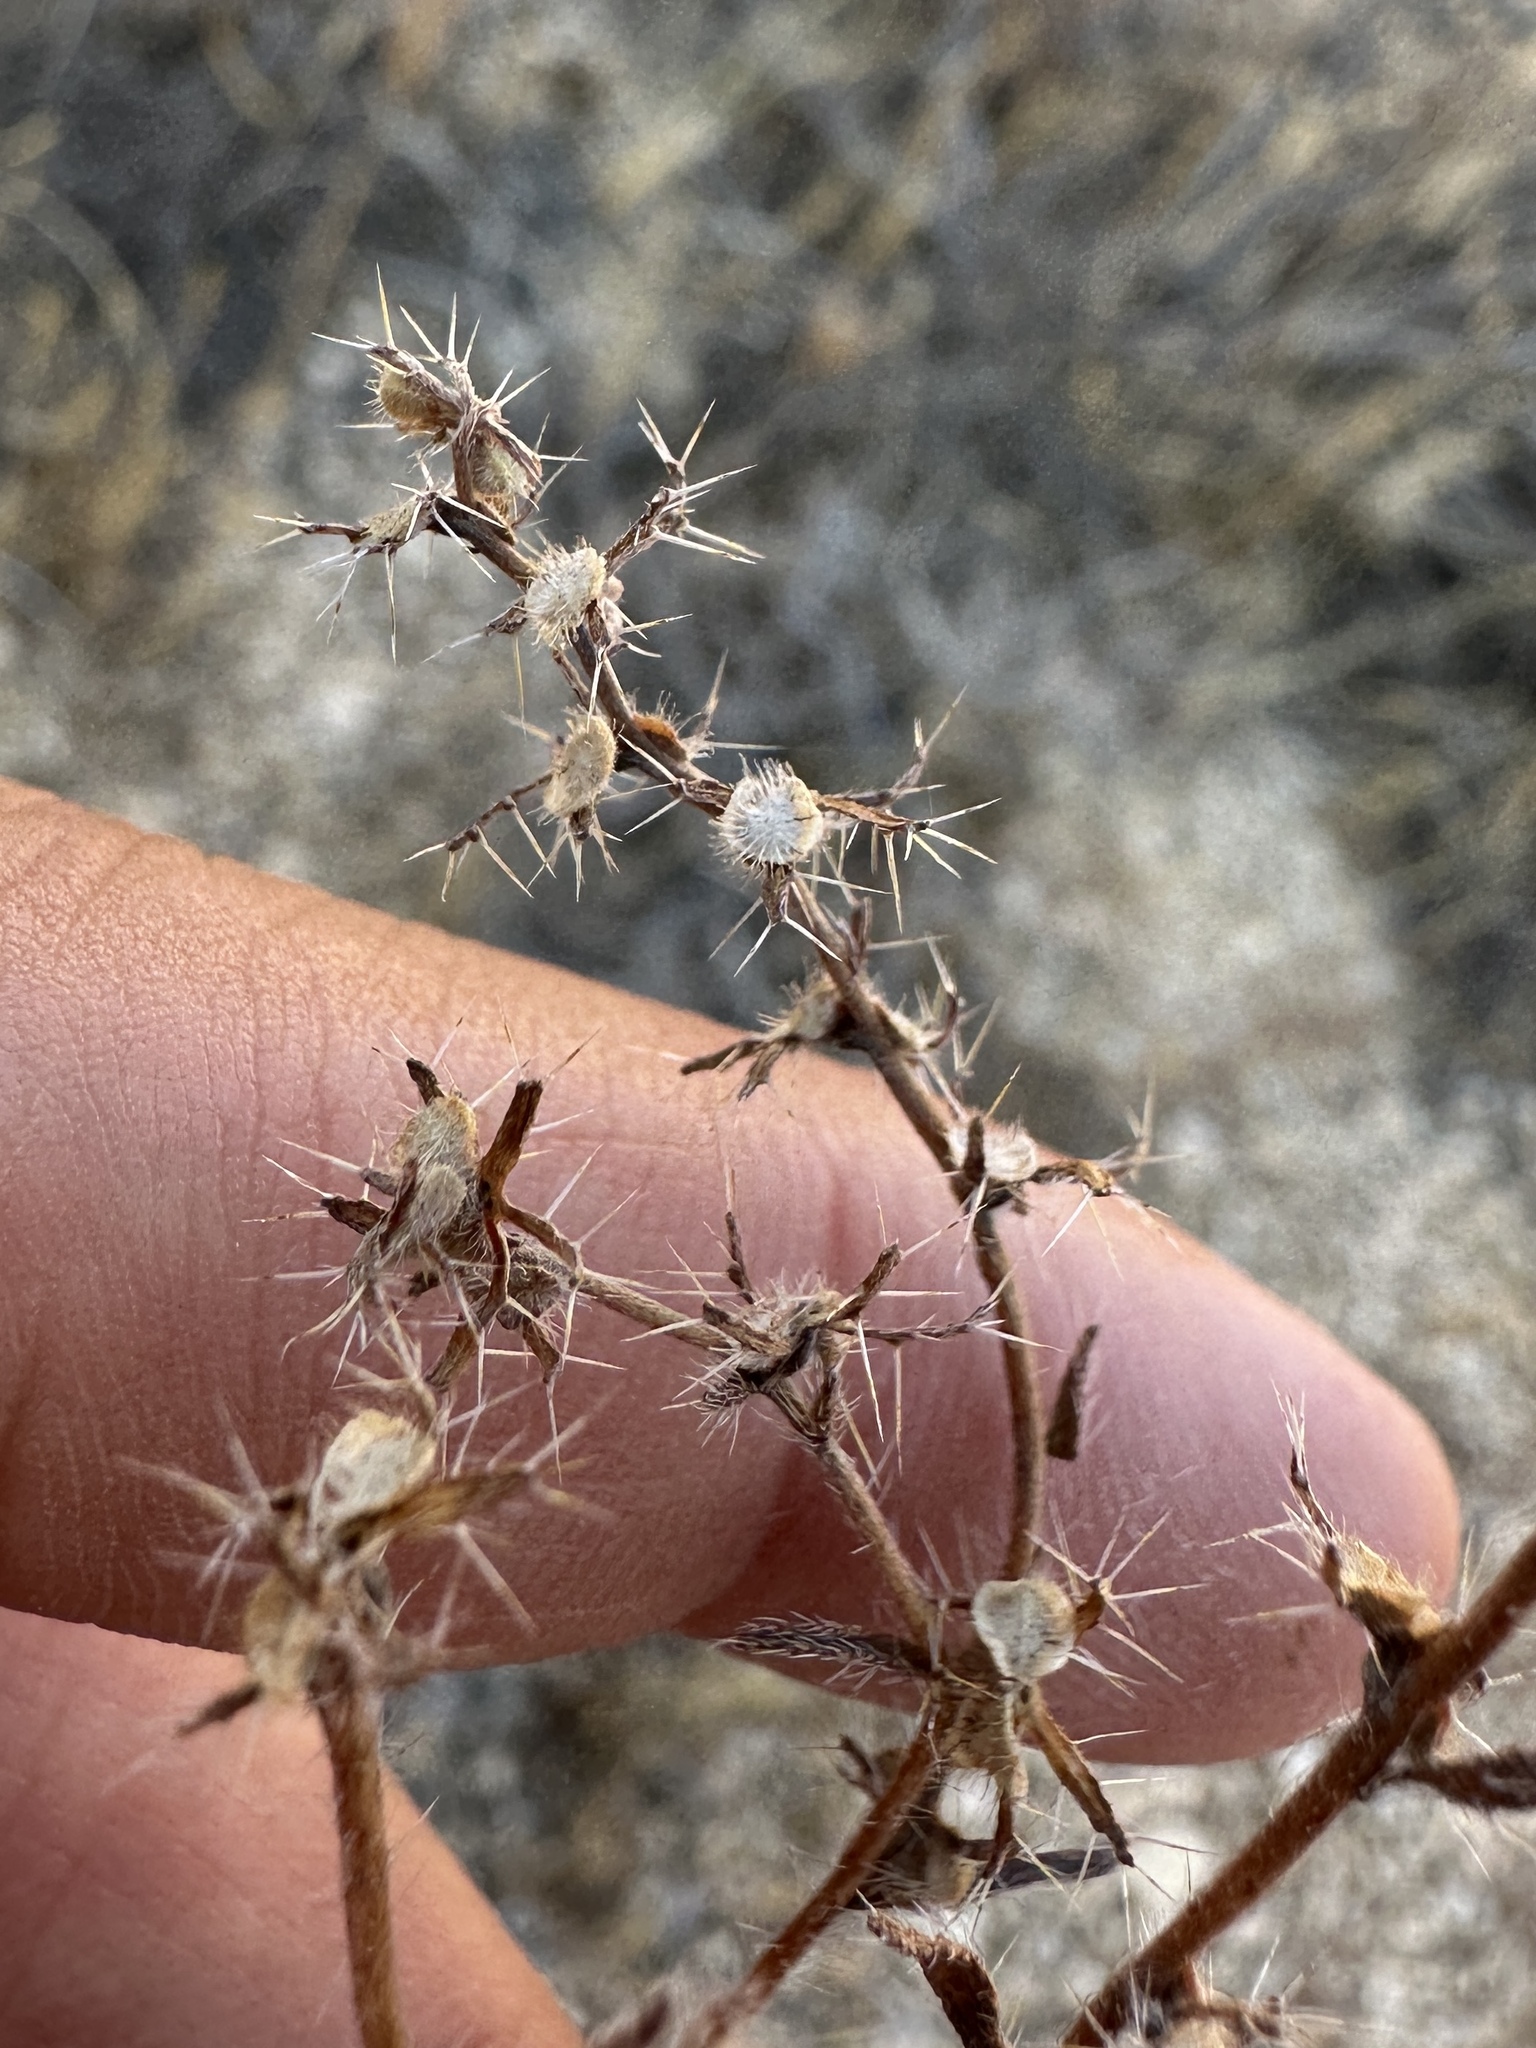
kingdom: Plantae
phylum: Tracheophyta
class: Magnoliopsida
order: Boraginales
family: Boraginaceae
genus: Pectocarya
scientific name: Pectocarya setosa
